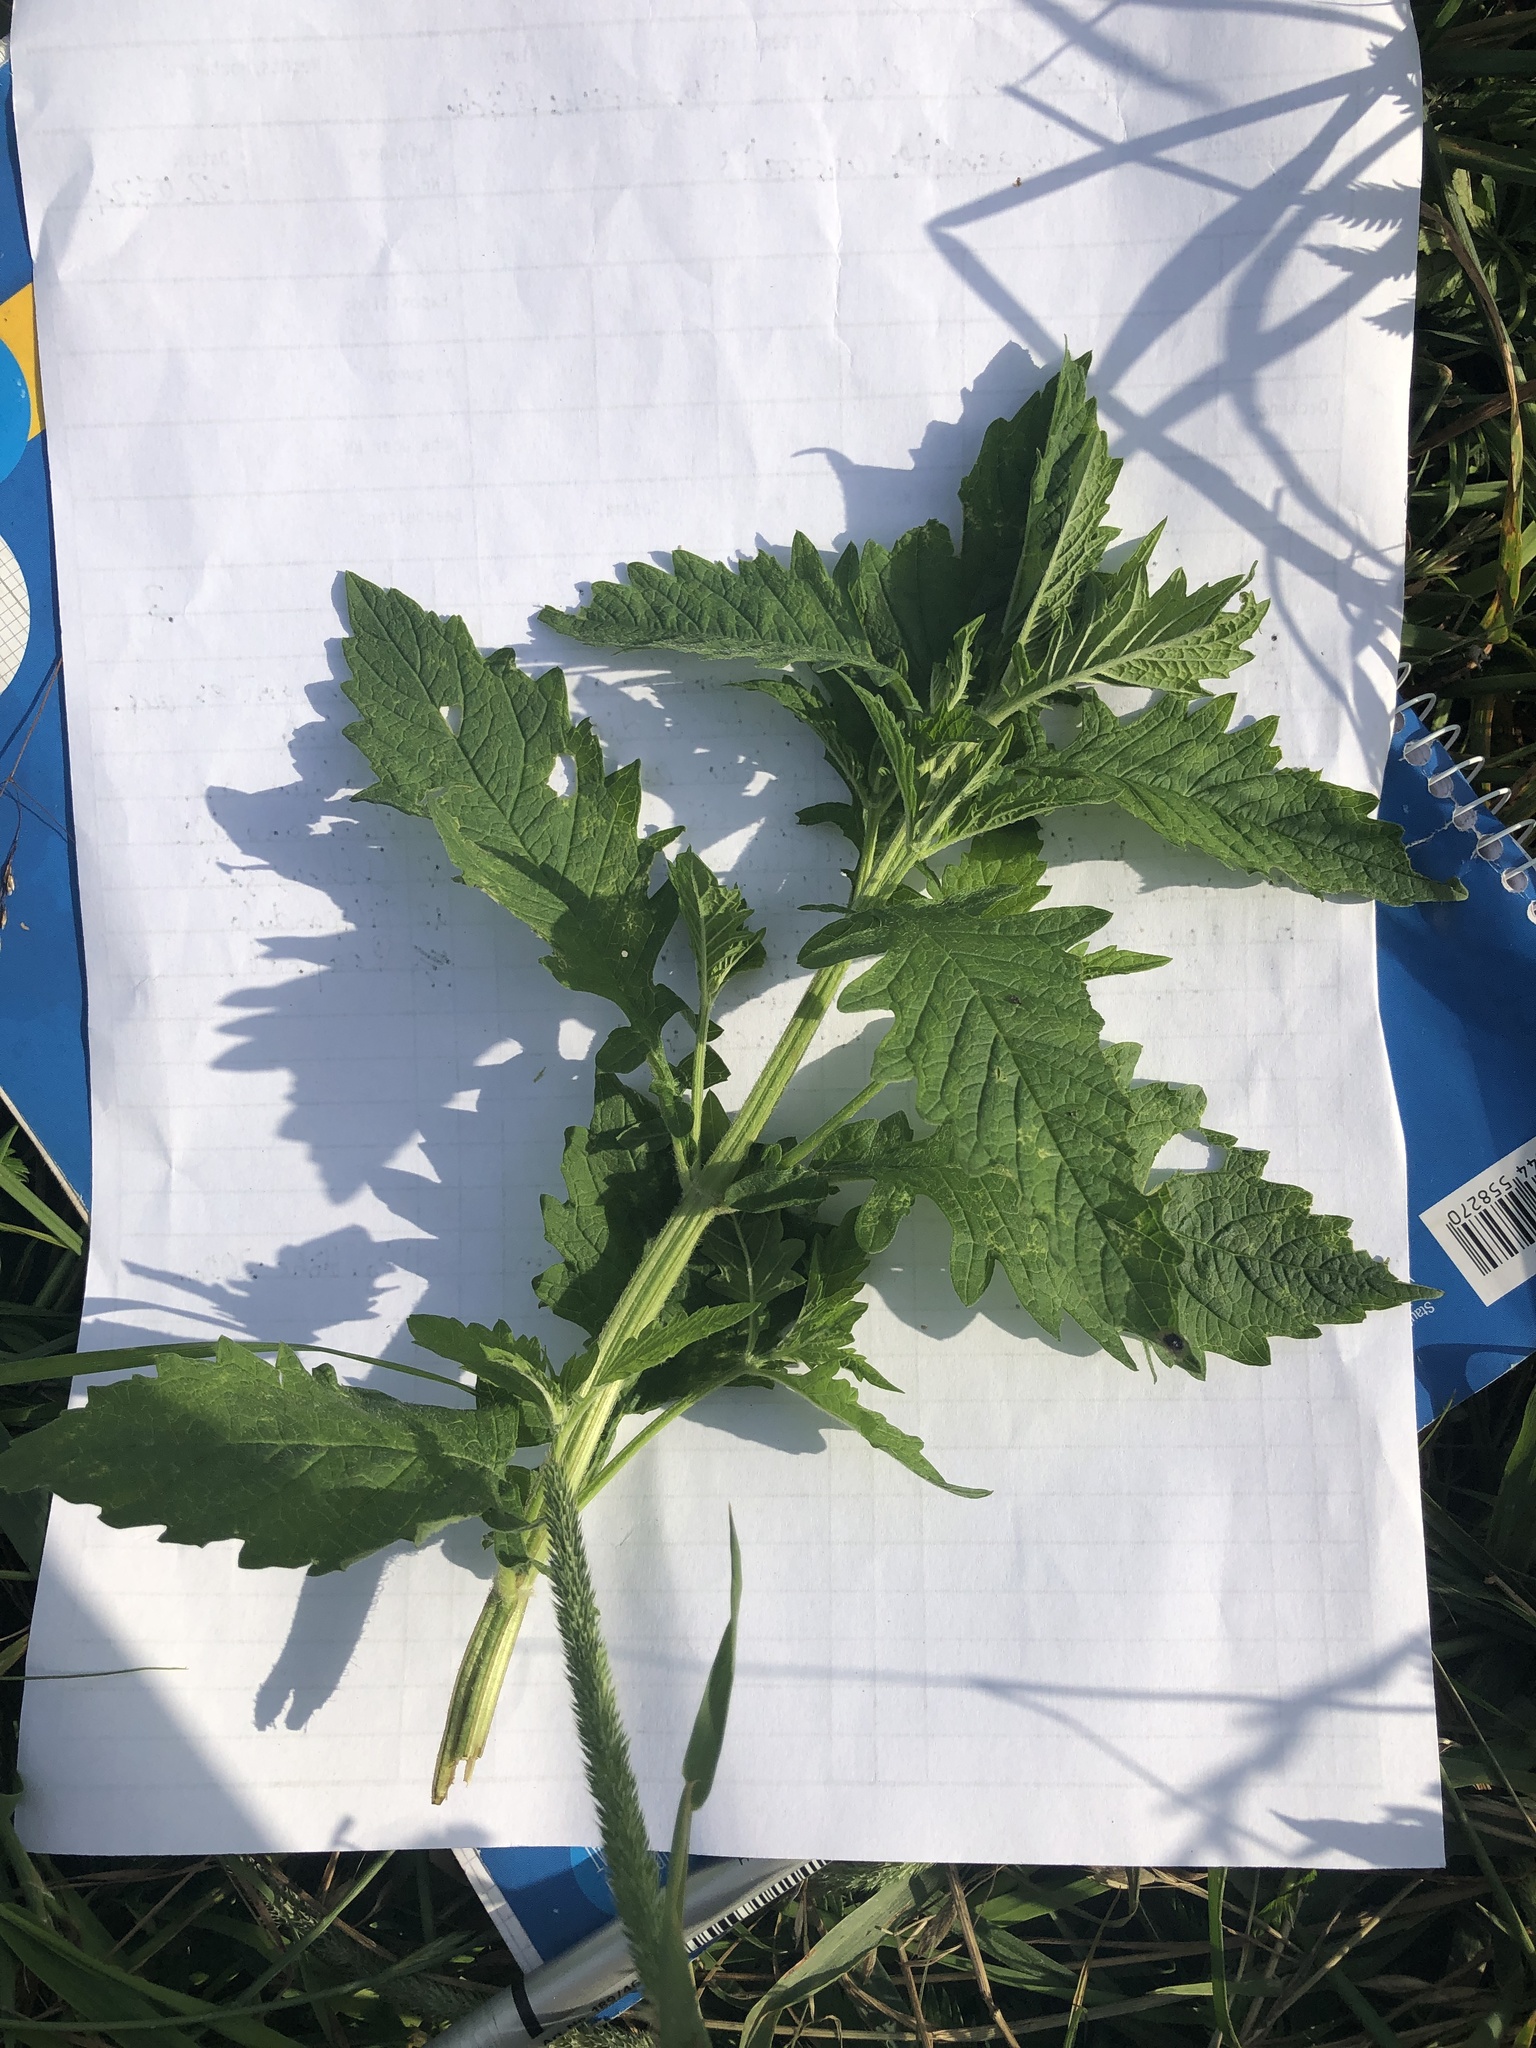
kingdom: Plantae
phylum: Tracheophyta
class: Magnoliopsida
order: Lamiales
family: Lamiaceae
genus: Lycopus
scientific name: Lycopus europaeus
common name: European bugleweed
